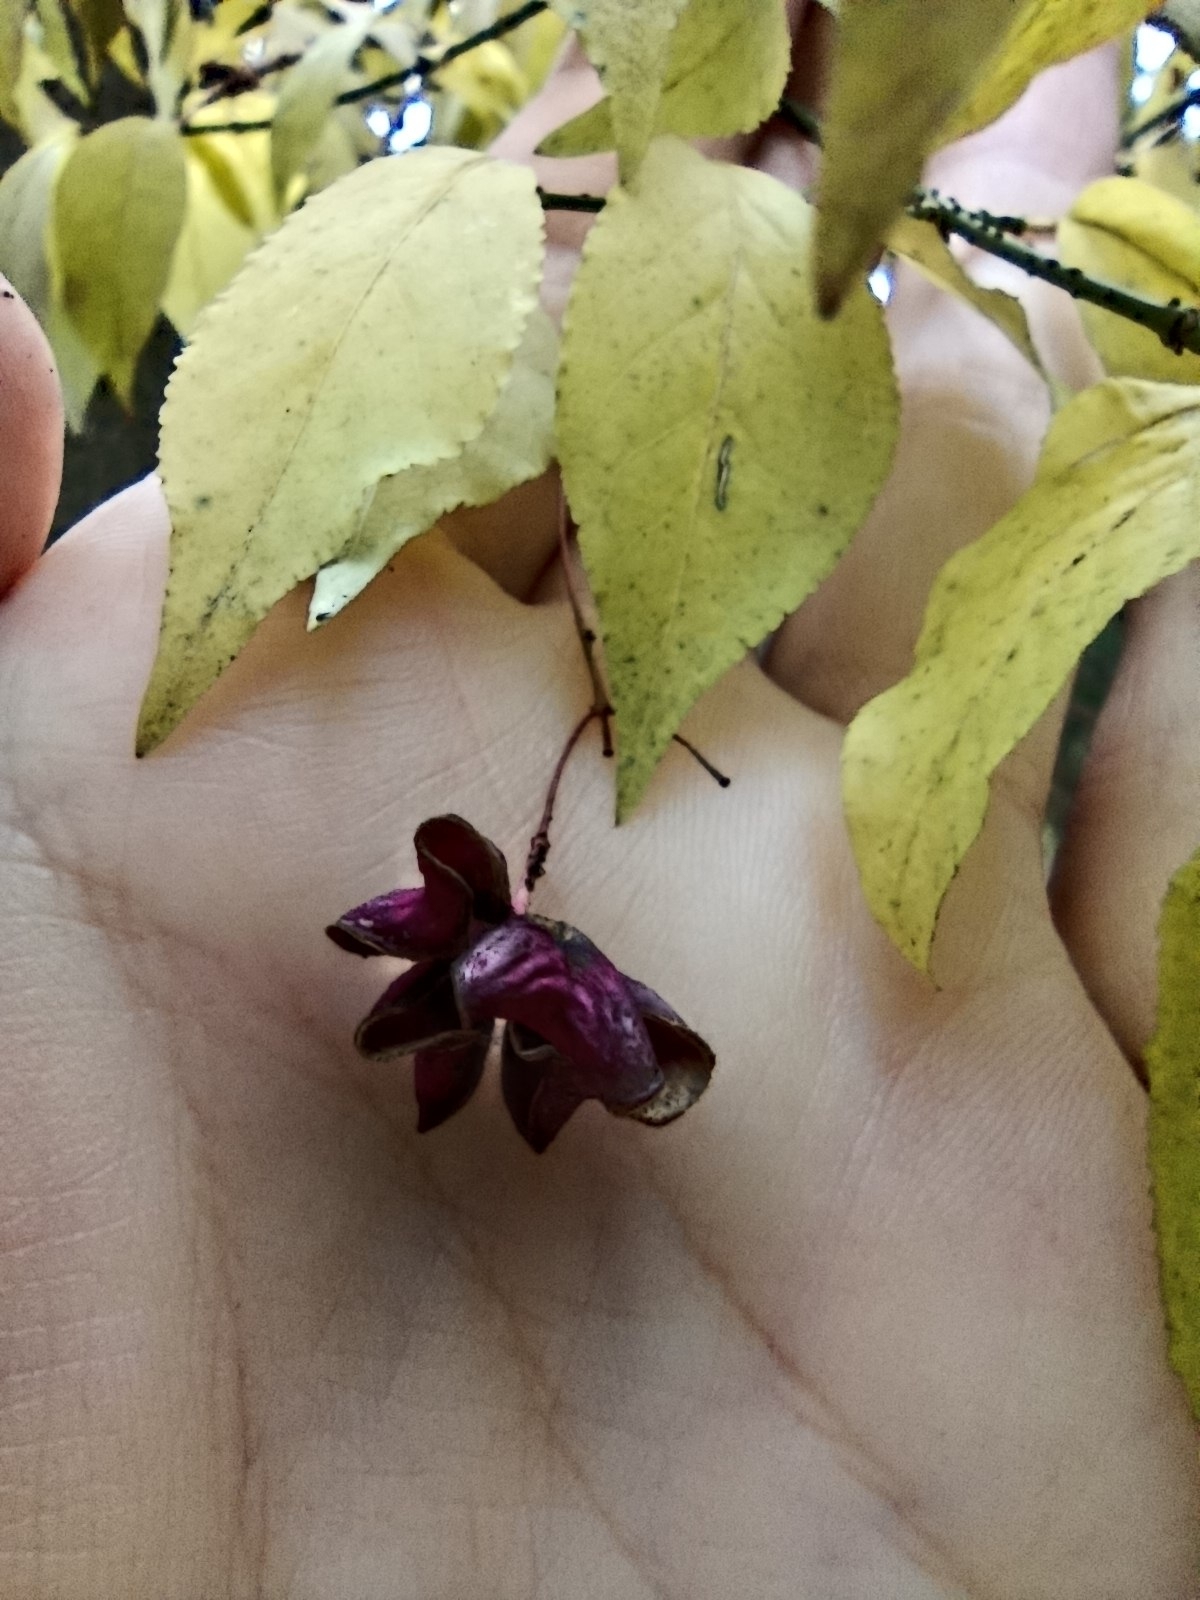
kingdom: Plantae
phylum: Tracheophyta
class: Magnoliopsida
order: Celastrales
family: Celastraceae
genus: Euonymus
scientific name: Euonymus verrucosus
